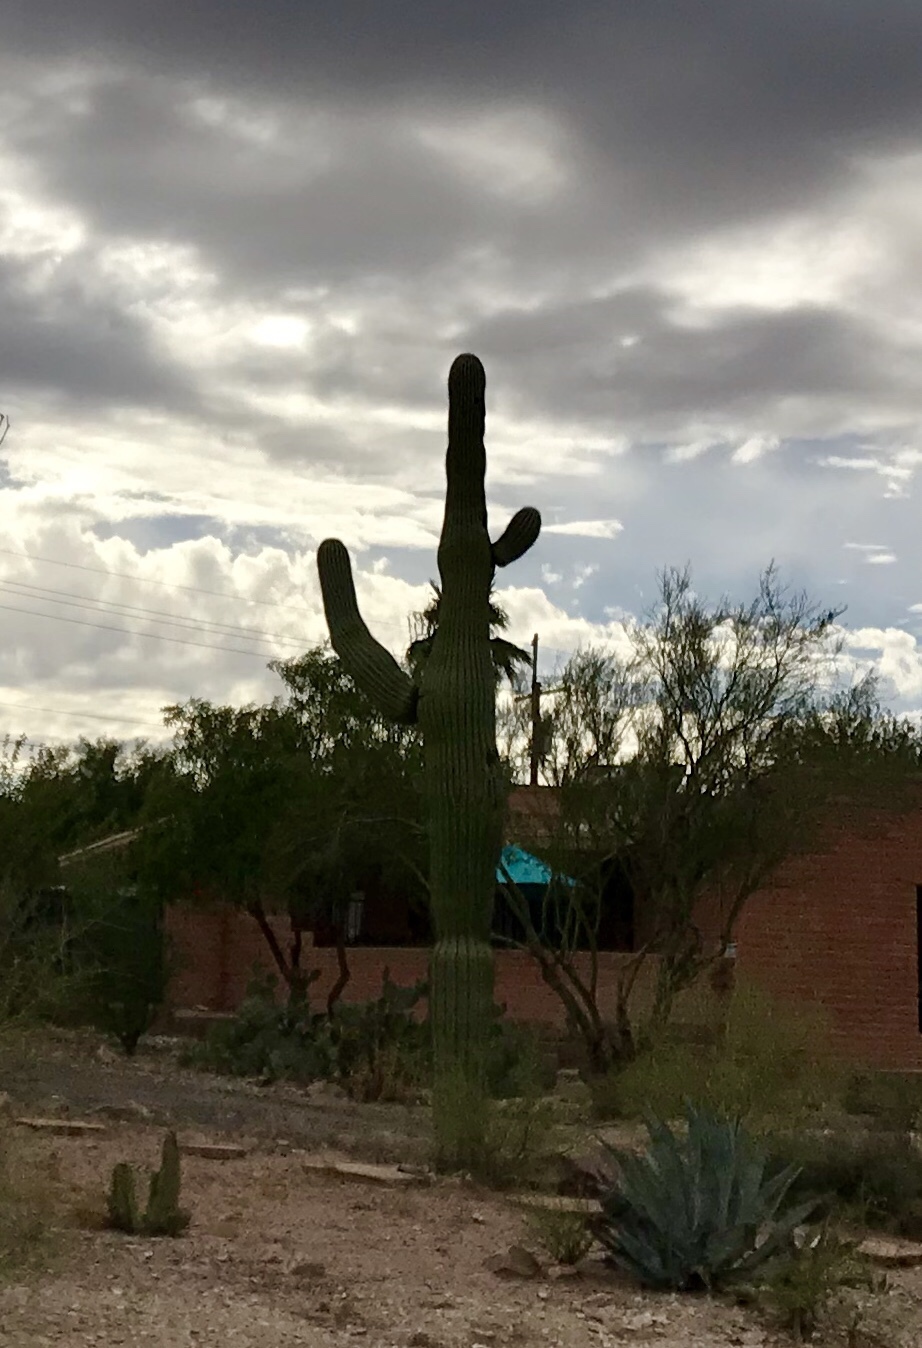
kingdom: Plantae
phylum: Tracheophyta
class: Magnoliopsida
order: Caryophyllales
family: Cactaceae
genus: Carnegiea
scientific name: Carnegiea gigantea
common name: Saguaro
